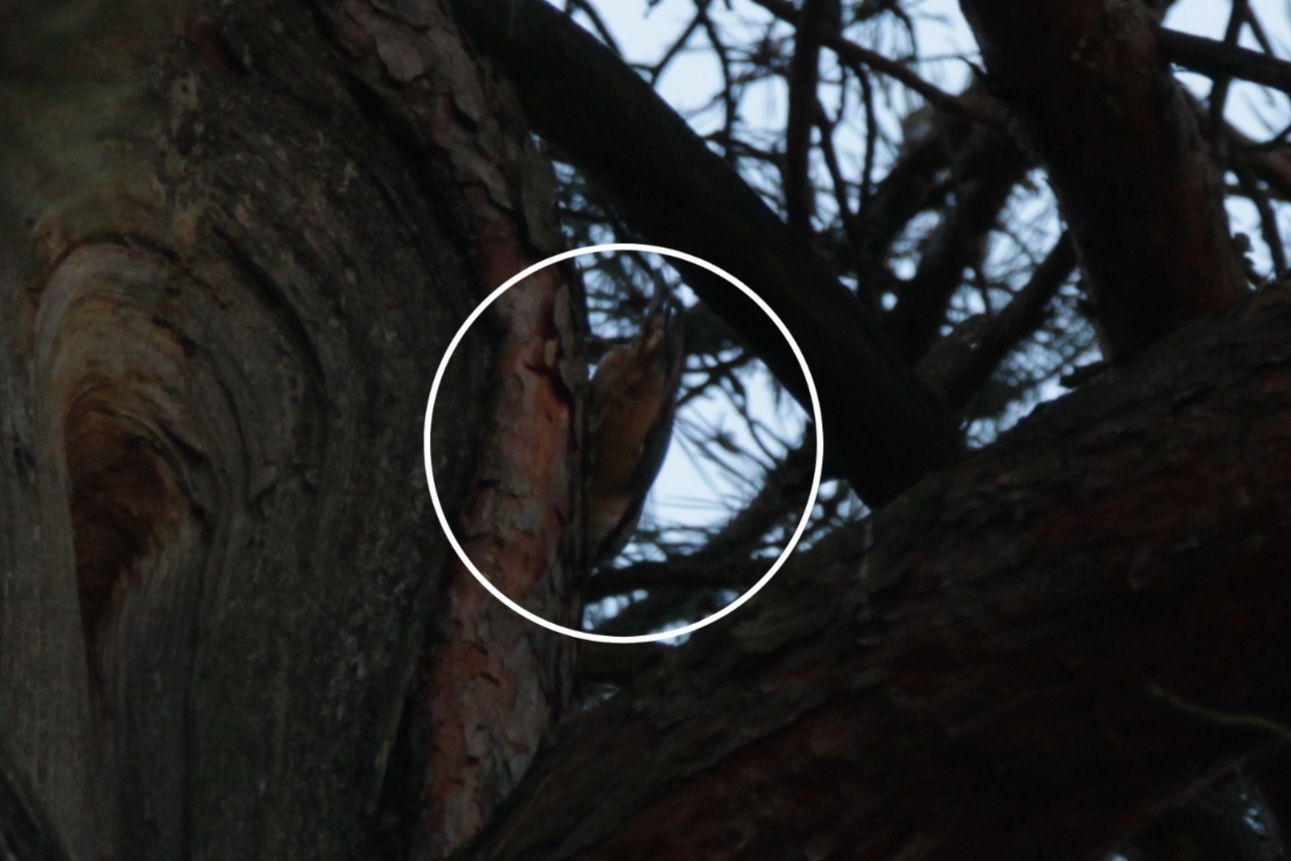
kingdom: Animalia
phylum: Chordata
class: Aves
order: Passeriformes
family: Sittidae
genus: Sitta
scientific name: Sitta europaea
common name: Eurasian nuthatch
